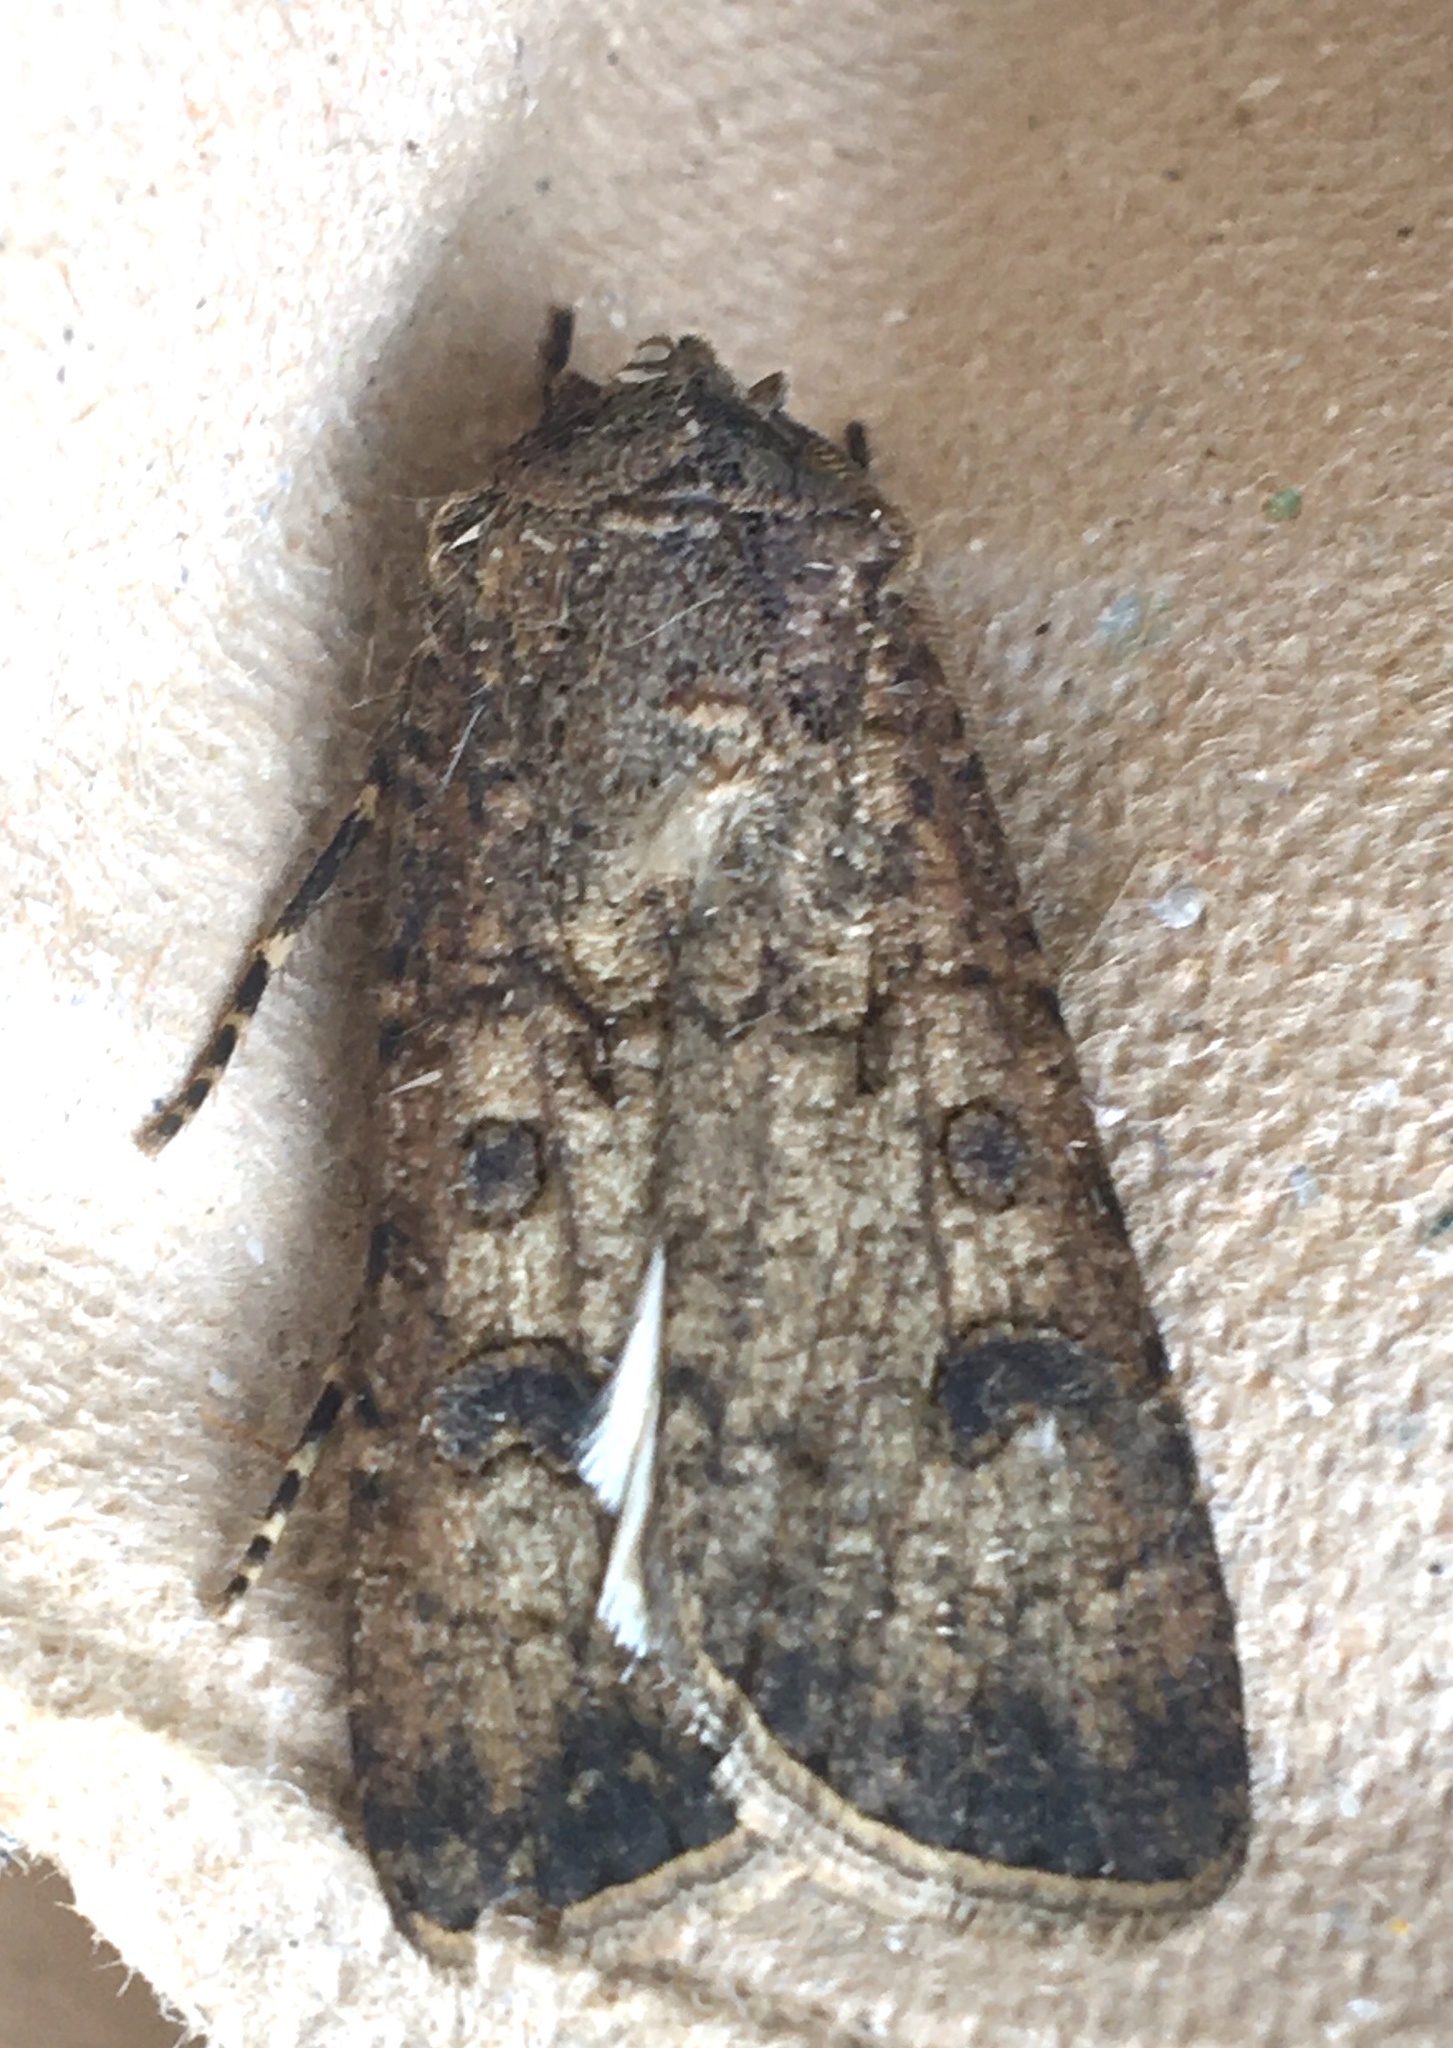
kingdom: Animalia
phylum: Arthropoda
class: Insecta
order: Lepidoptera
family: Noctuidae
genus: Agrotis
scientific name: Agrotis segetum
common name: Turnip moth
